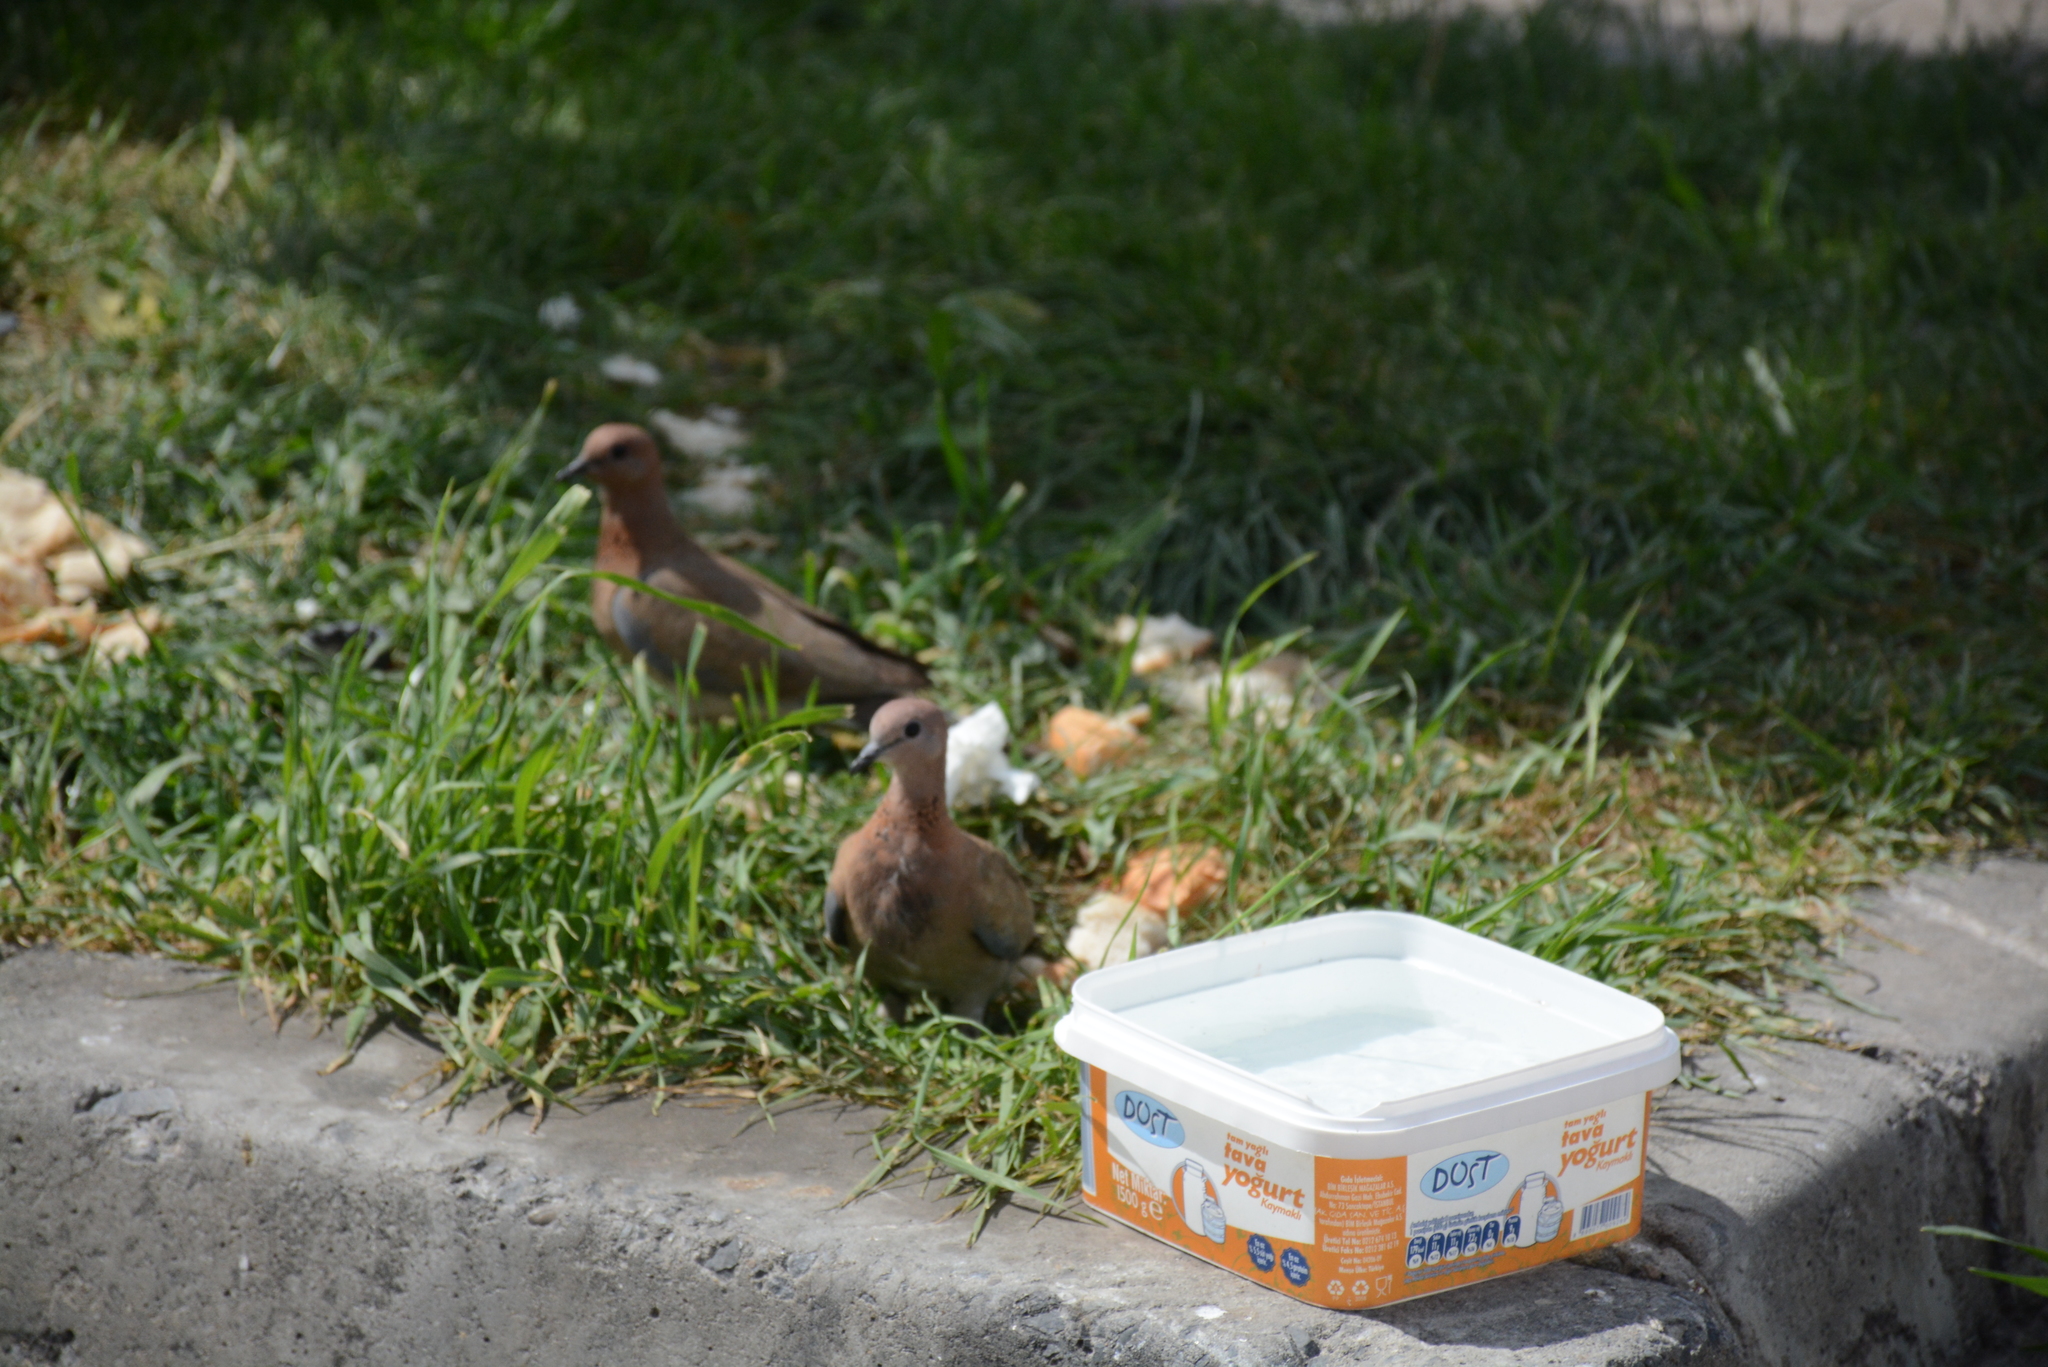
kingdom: Animalia
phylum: Chordata
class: Aves
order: Columbiformes
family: Columbidae
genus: Spilopelia
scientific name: Spilopelia senegalensis
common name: Laughing dove
